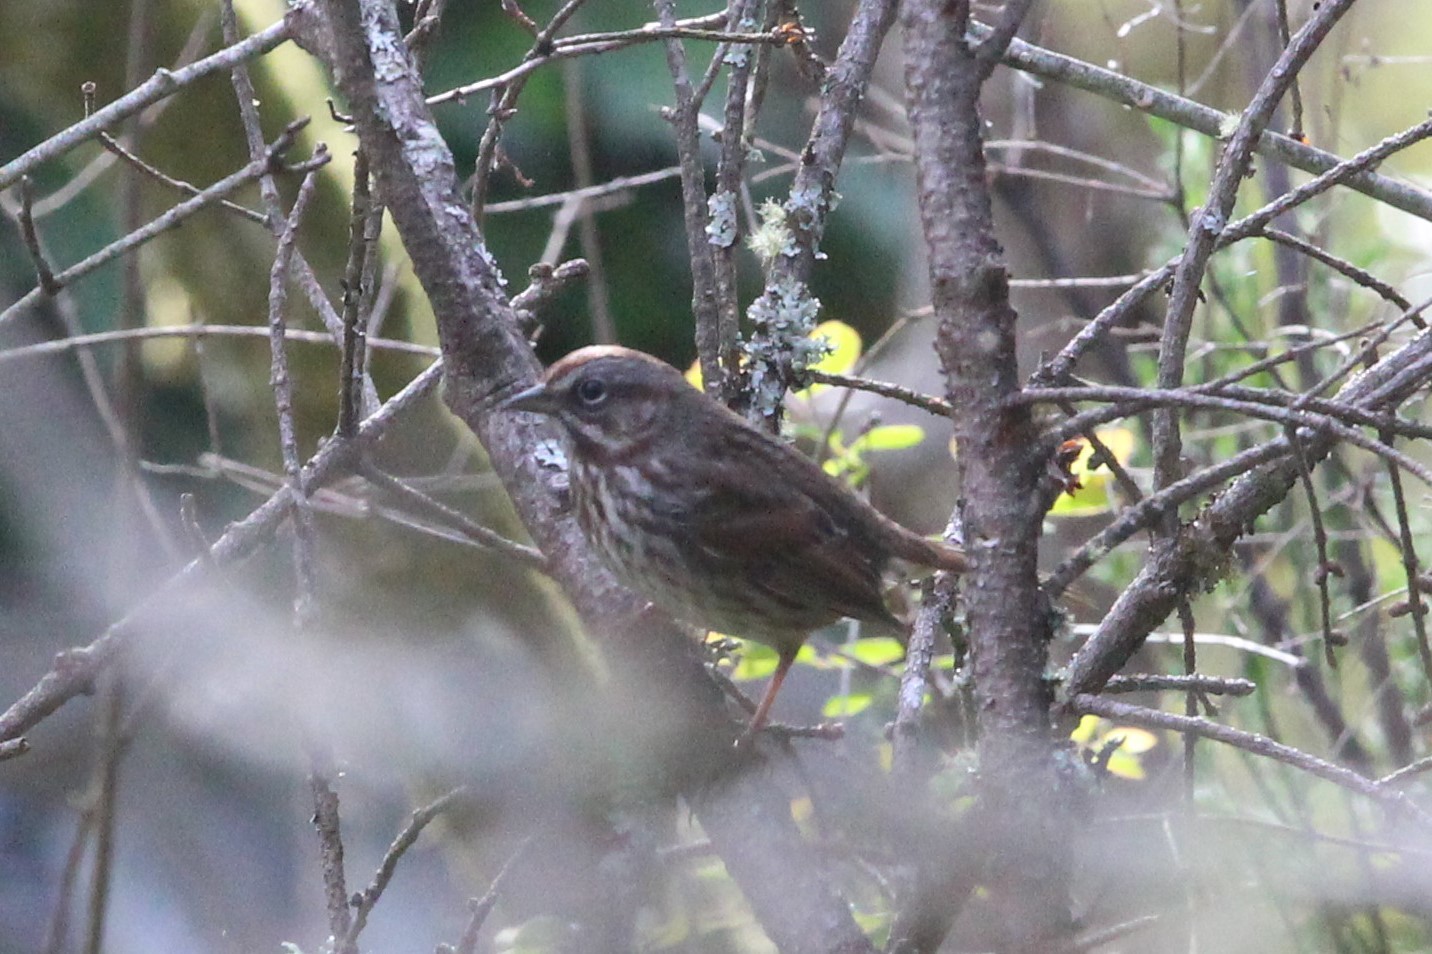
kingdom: Animalia
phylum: Chordata
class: Aves
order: Passeriformes
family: Passerellidae
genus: Melospiza
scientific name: Melospiza melodia
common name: Song sparrow
